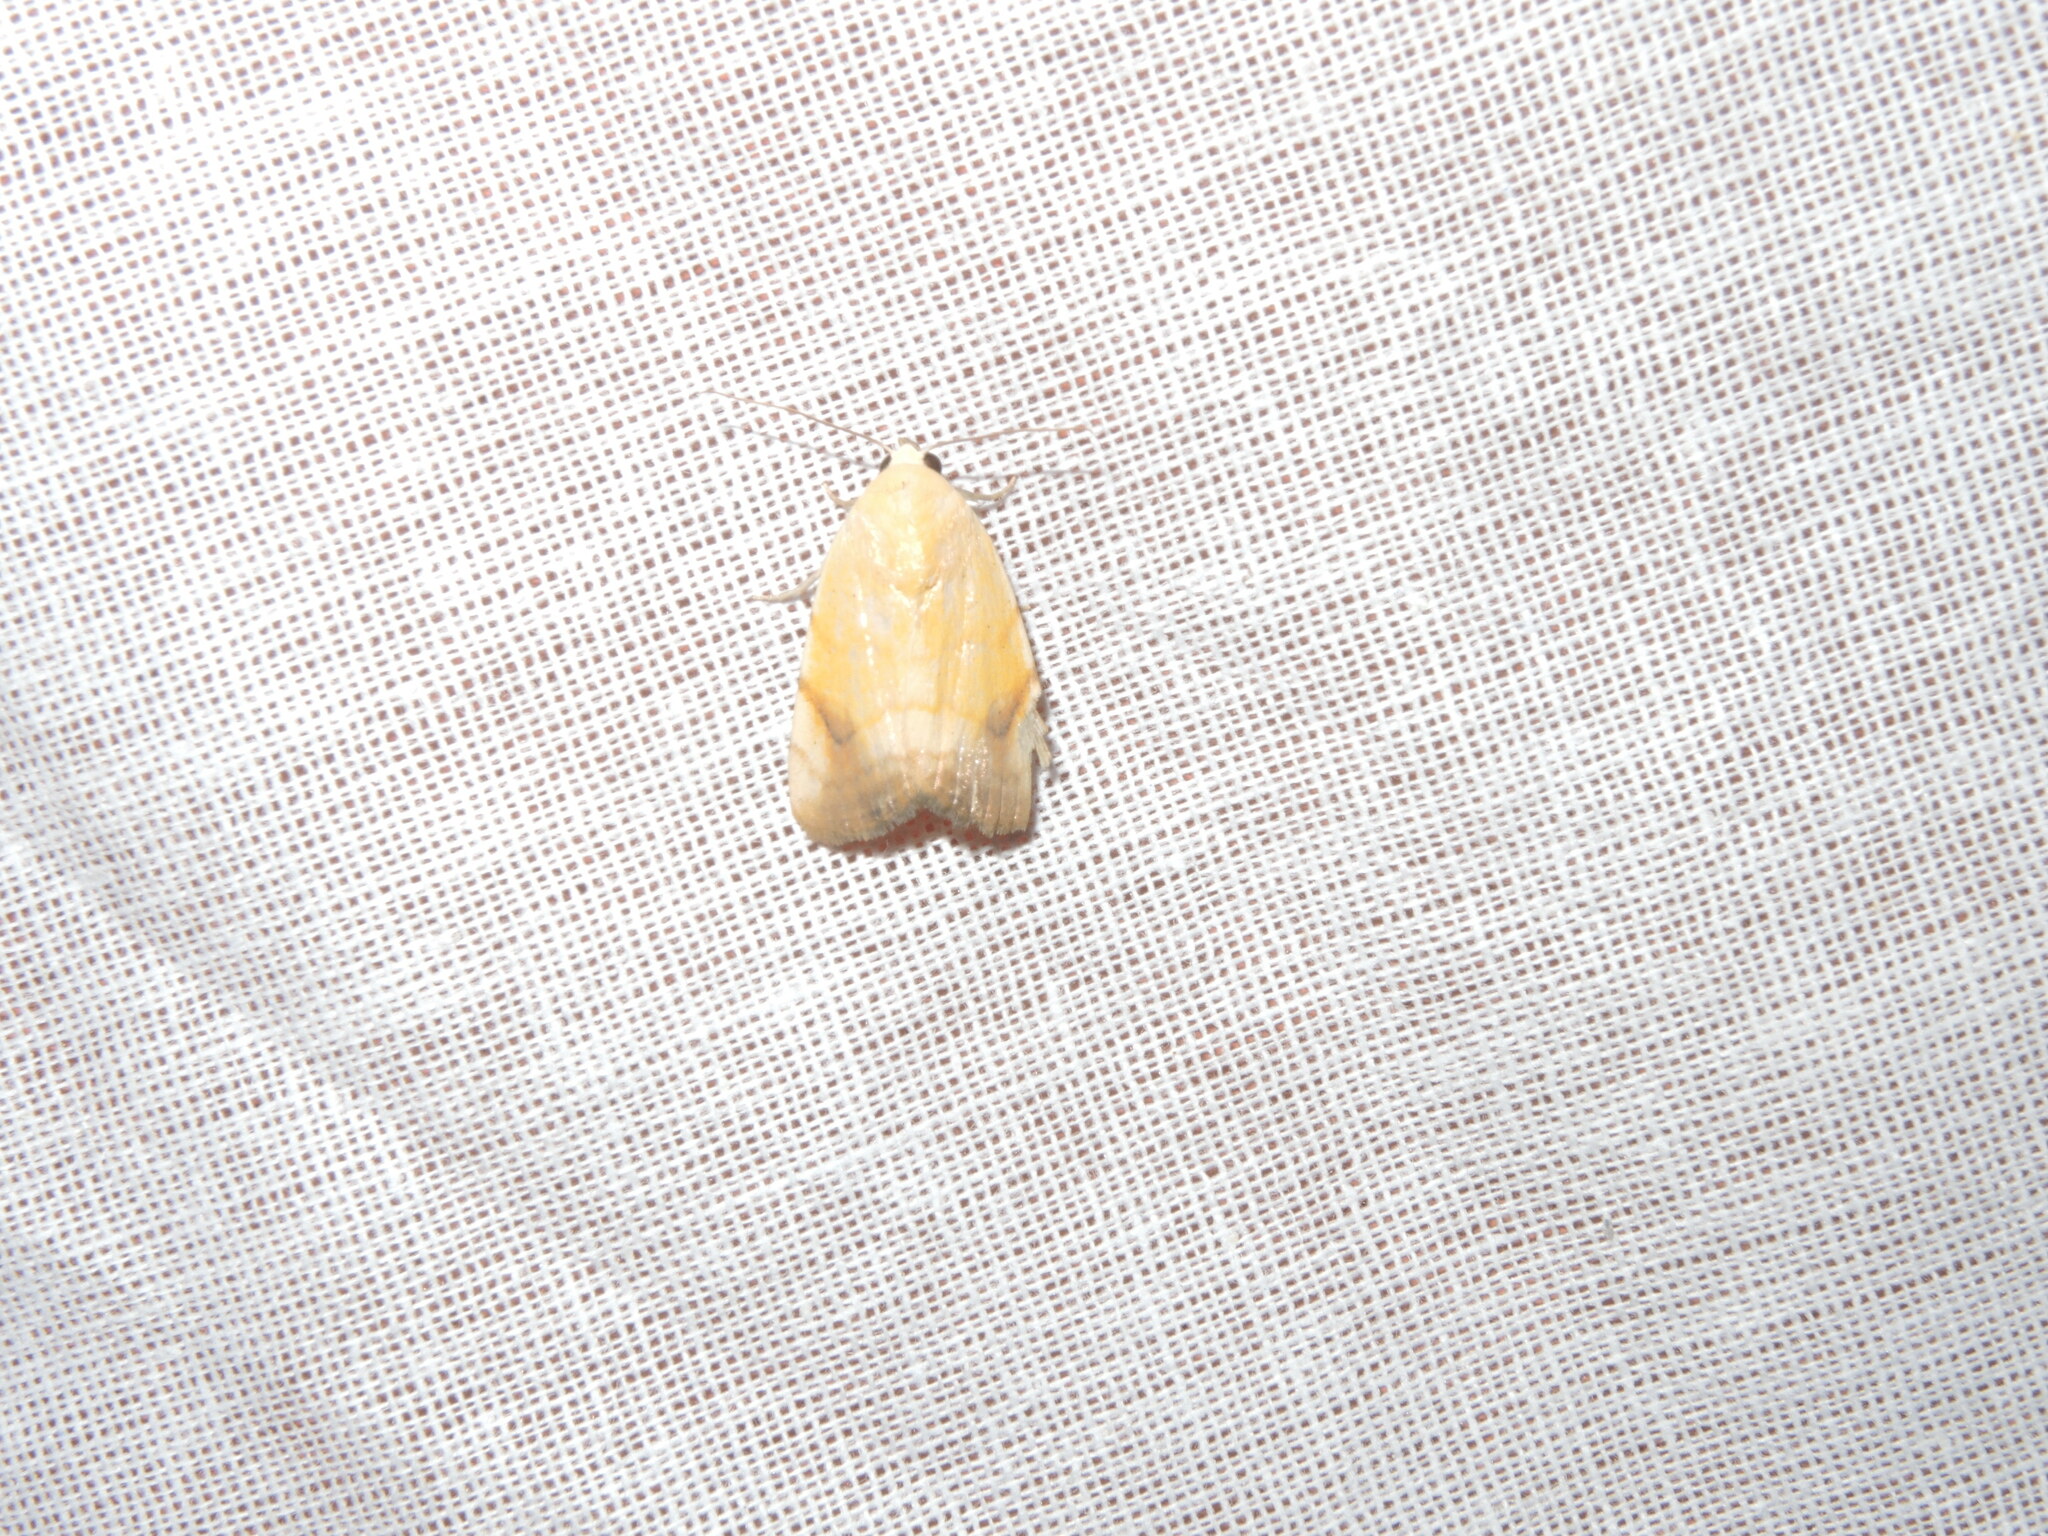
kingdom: Animalia
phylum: Arthropoda
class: Insecta
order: Lepidoptera
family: Nolidae
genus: Xanthodes
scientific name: Xanthodes albago
